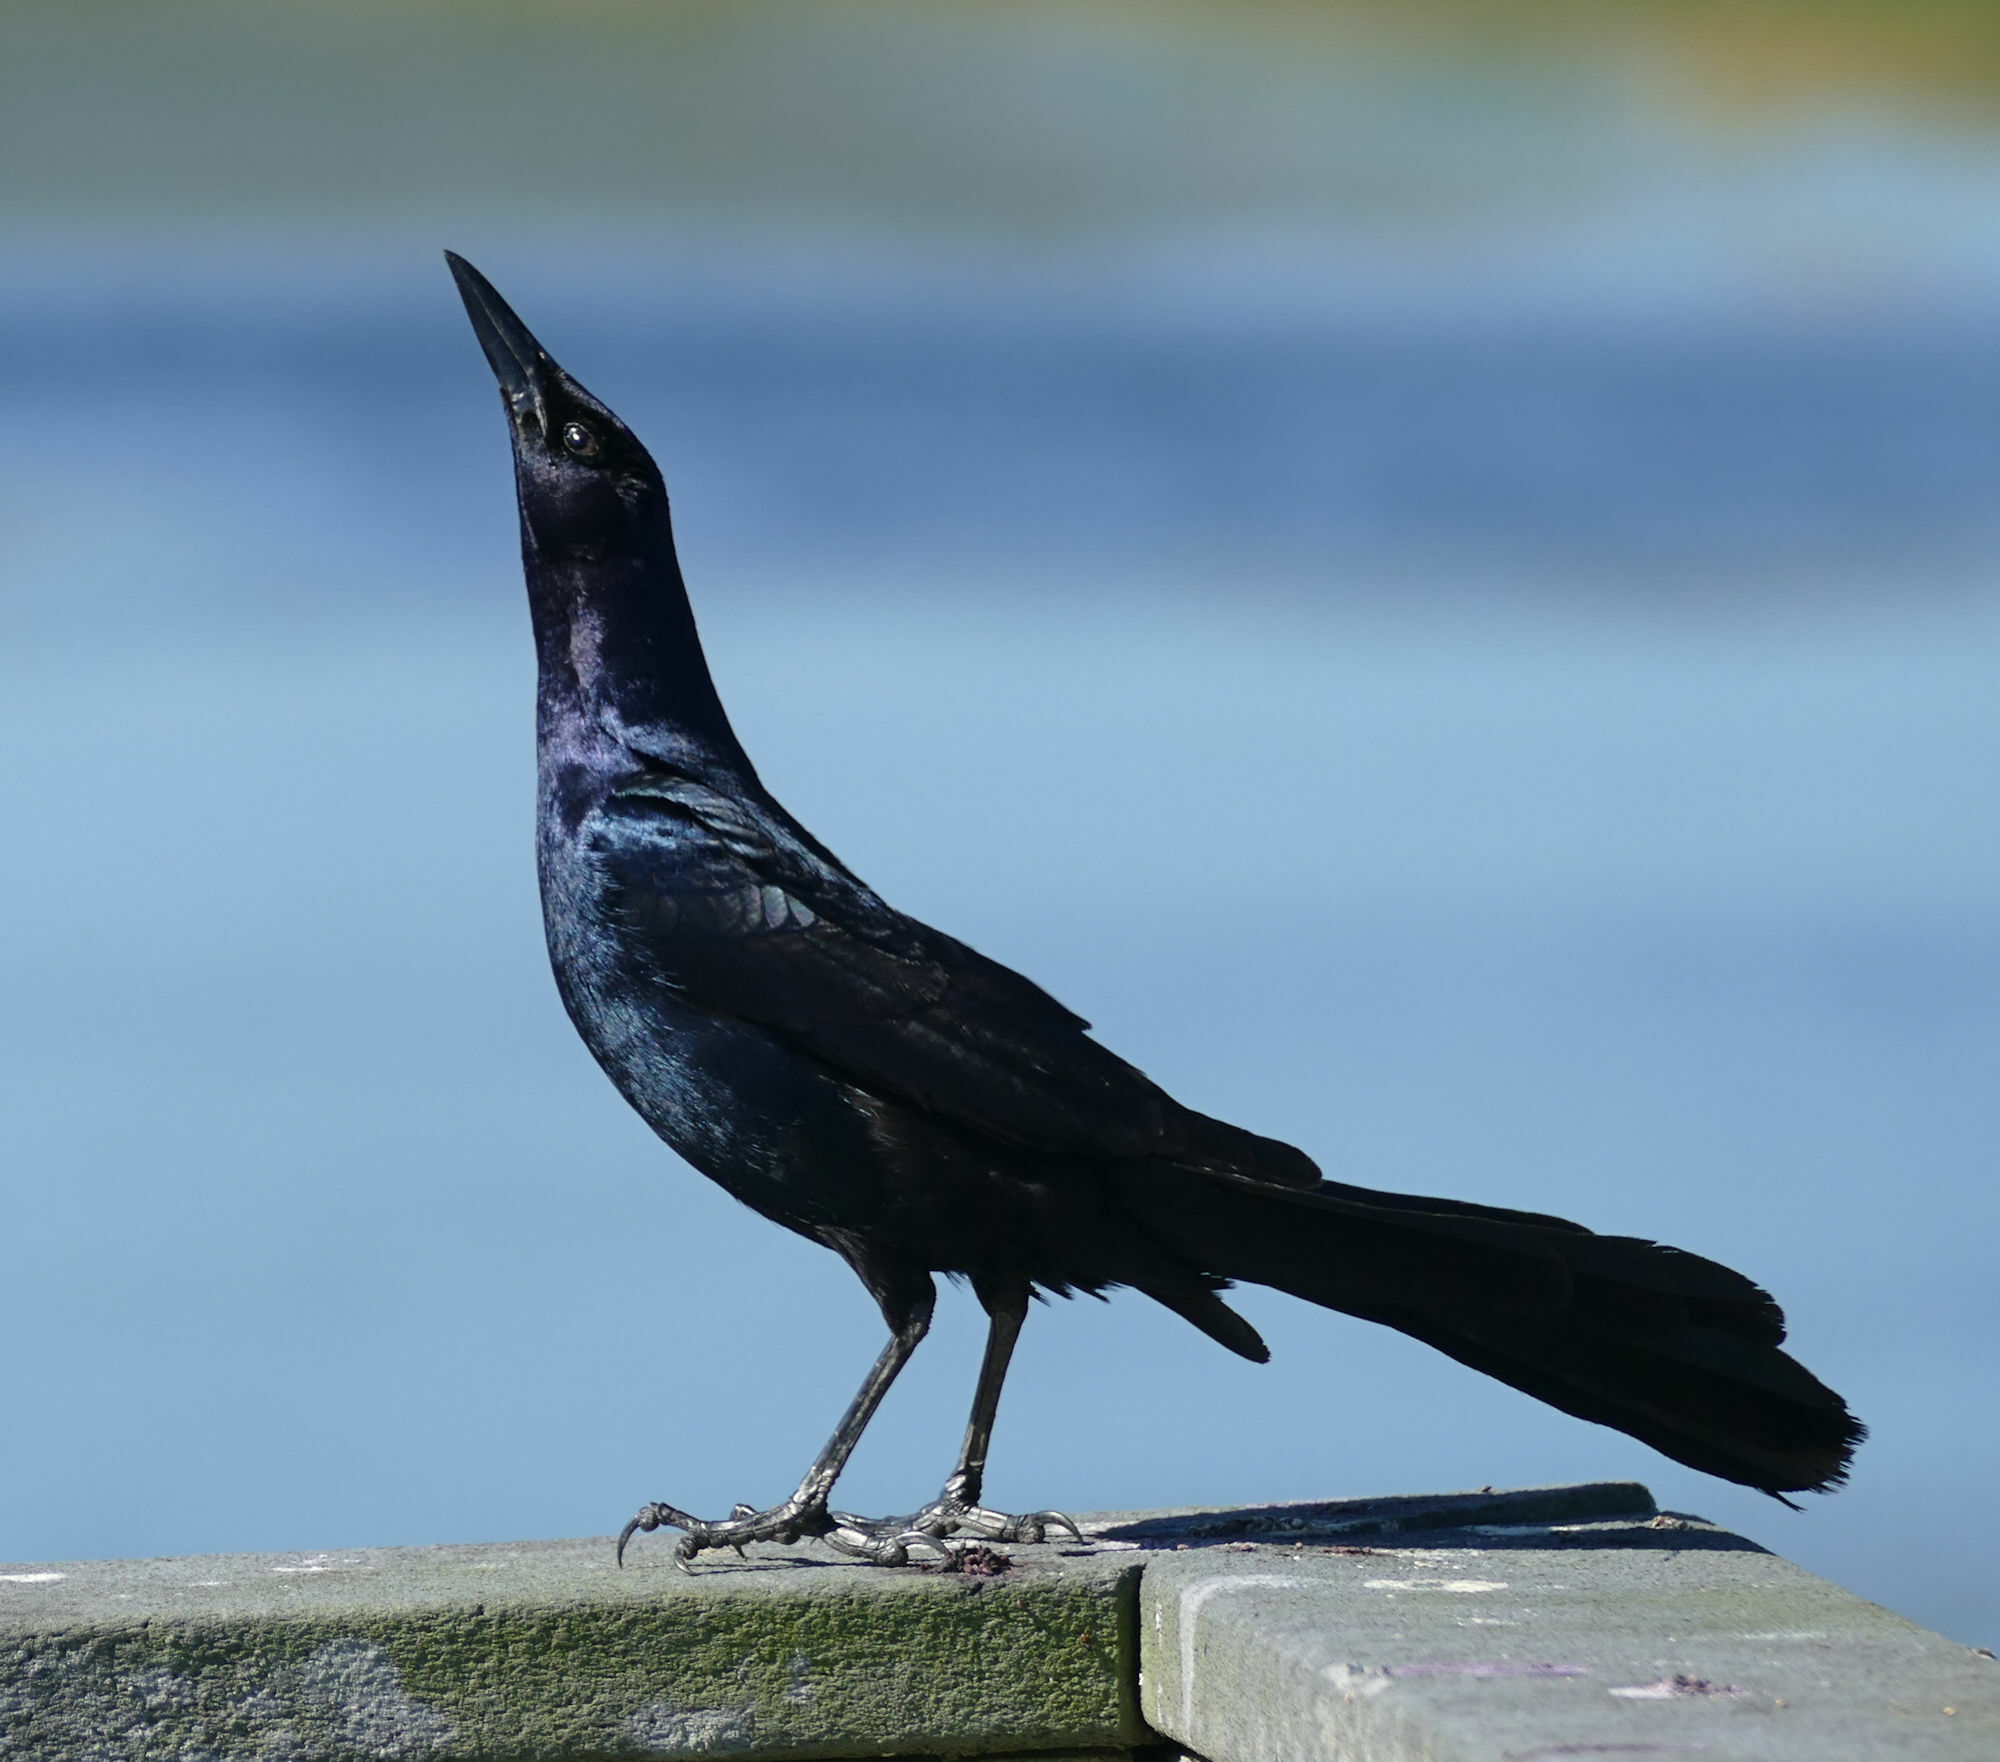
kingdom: Animalia
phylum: Chordata
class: Aves
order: Passeriformes
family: Icteridae
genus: Quiscalus
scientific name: Quiscalus major
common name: Boat-tailed grackle
